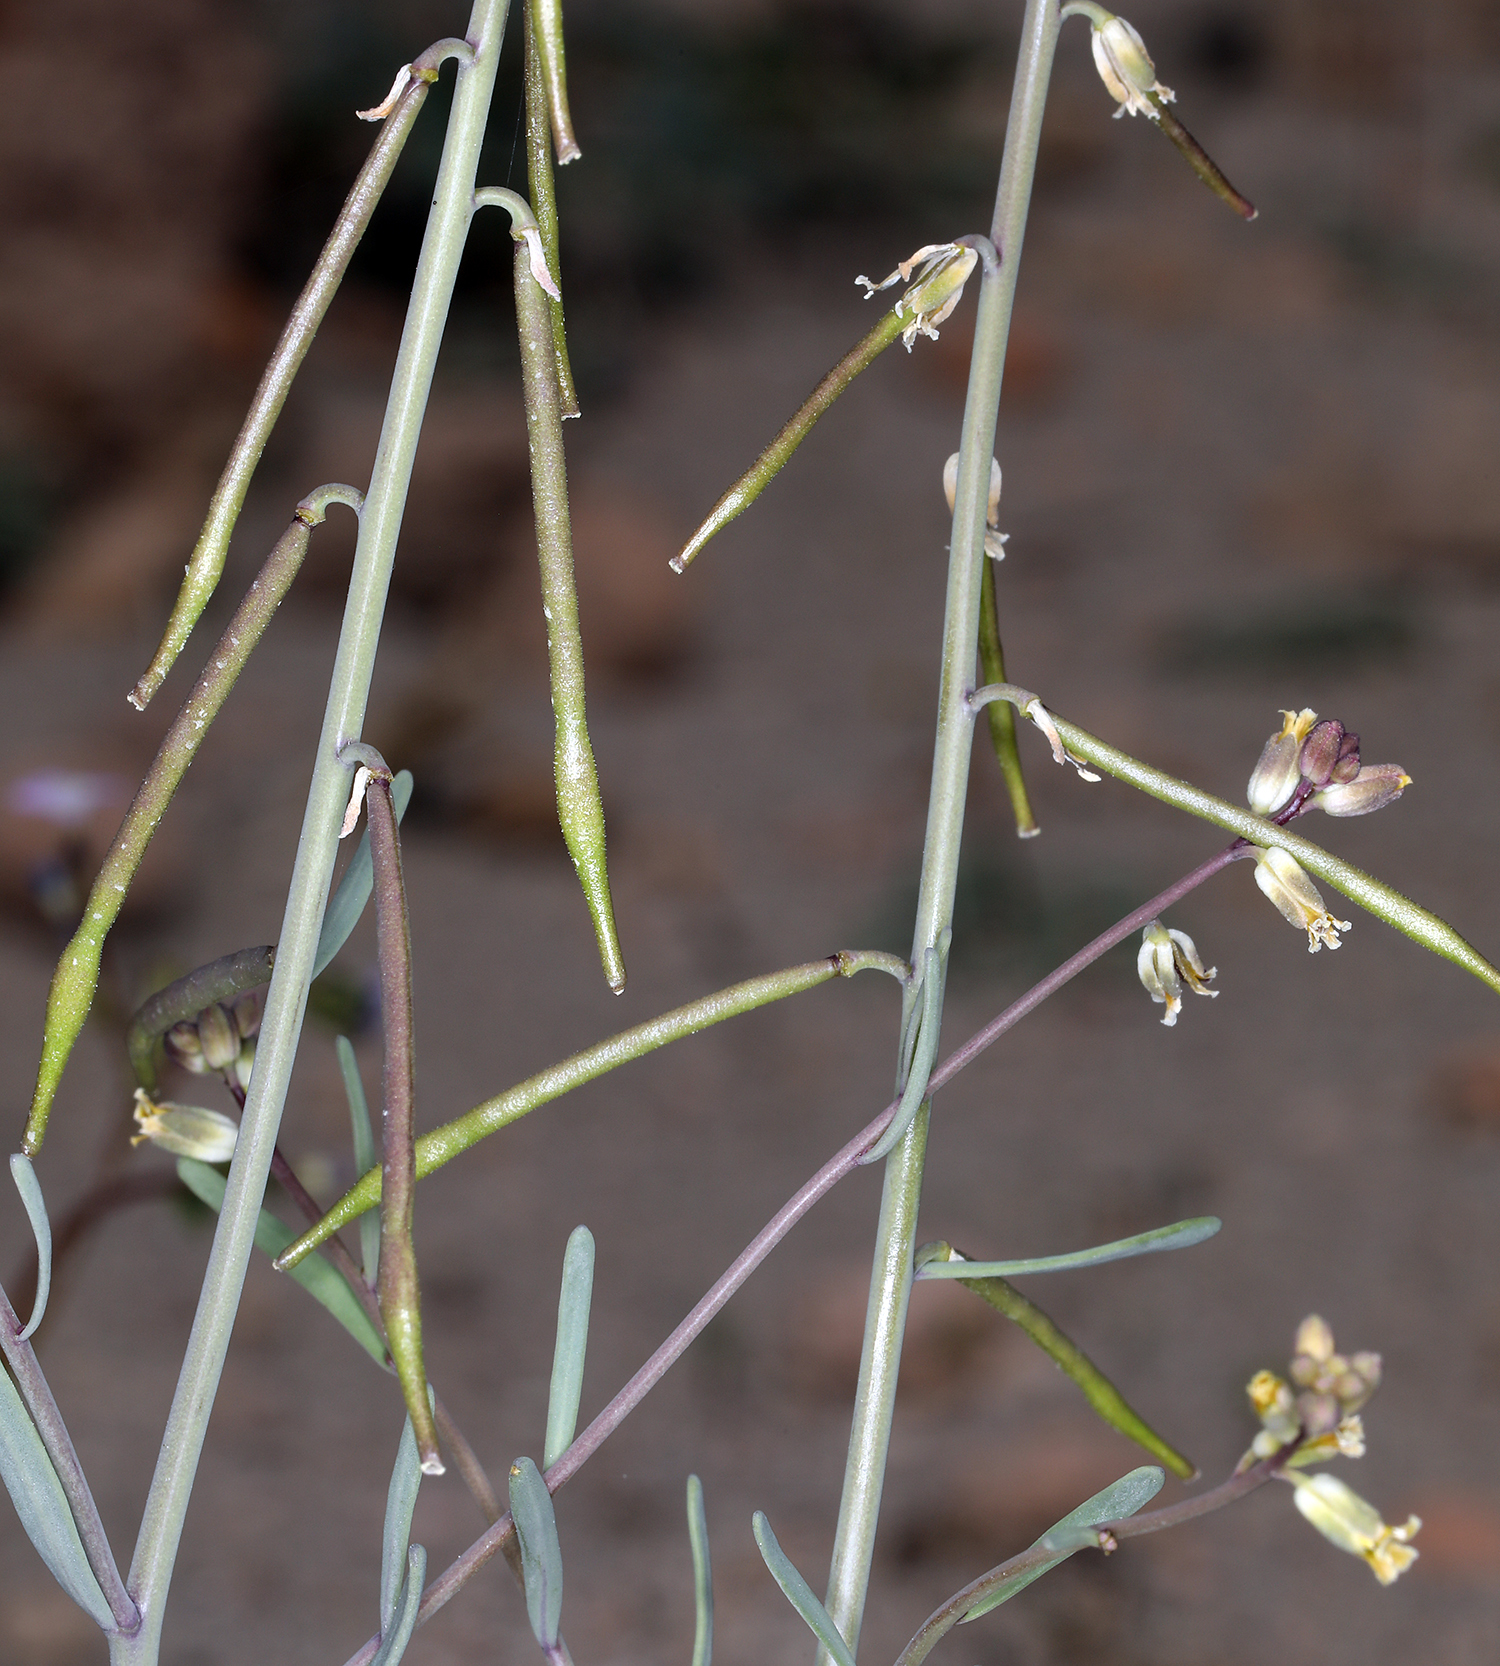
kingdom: Plantae
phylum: Tracheophyta
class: Magnoliopsida
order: Brassicales
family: Brassicaceae
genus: Streptanthus
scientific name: Streptanthus longirostris
